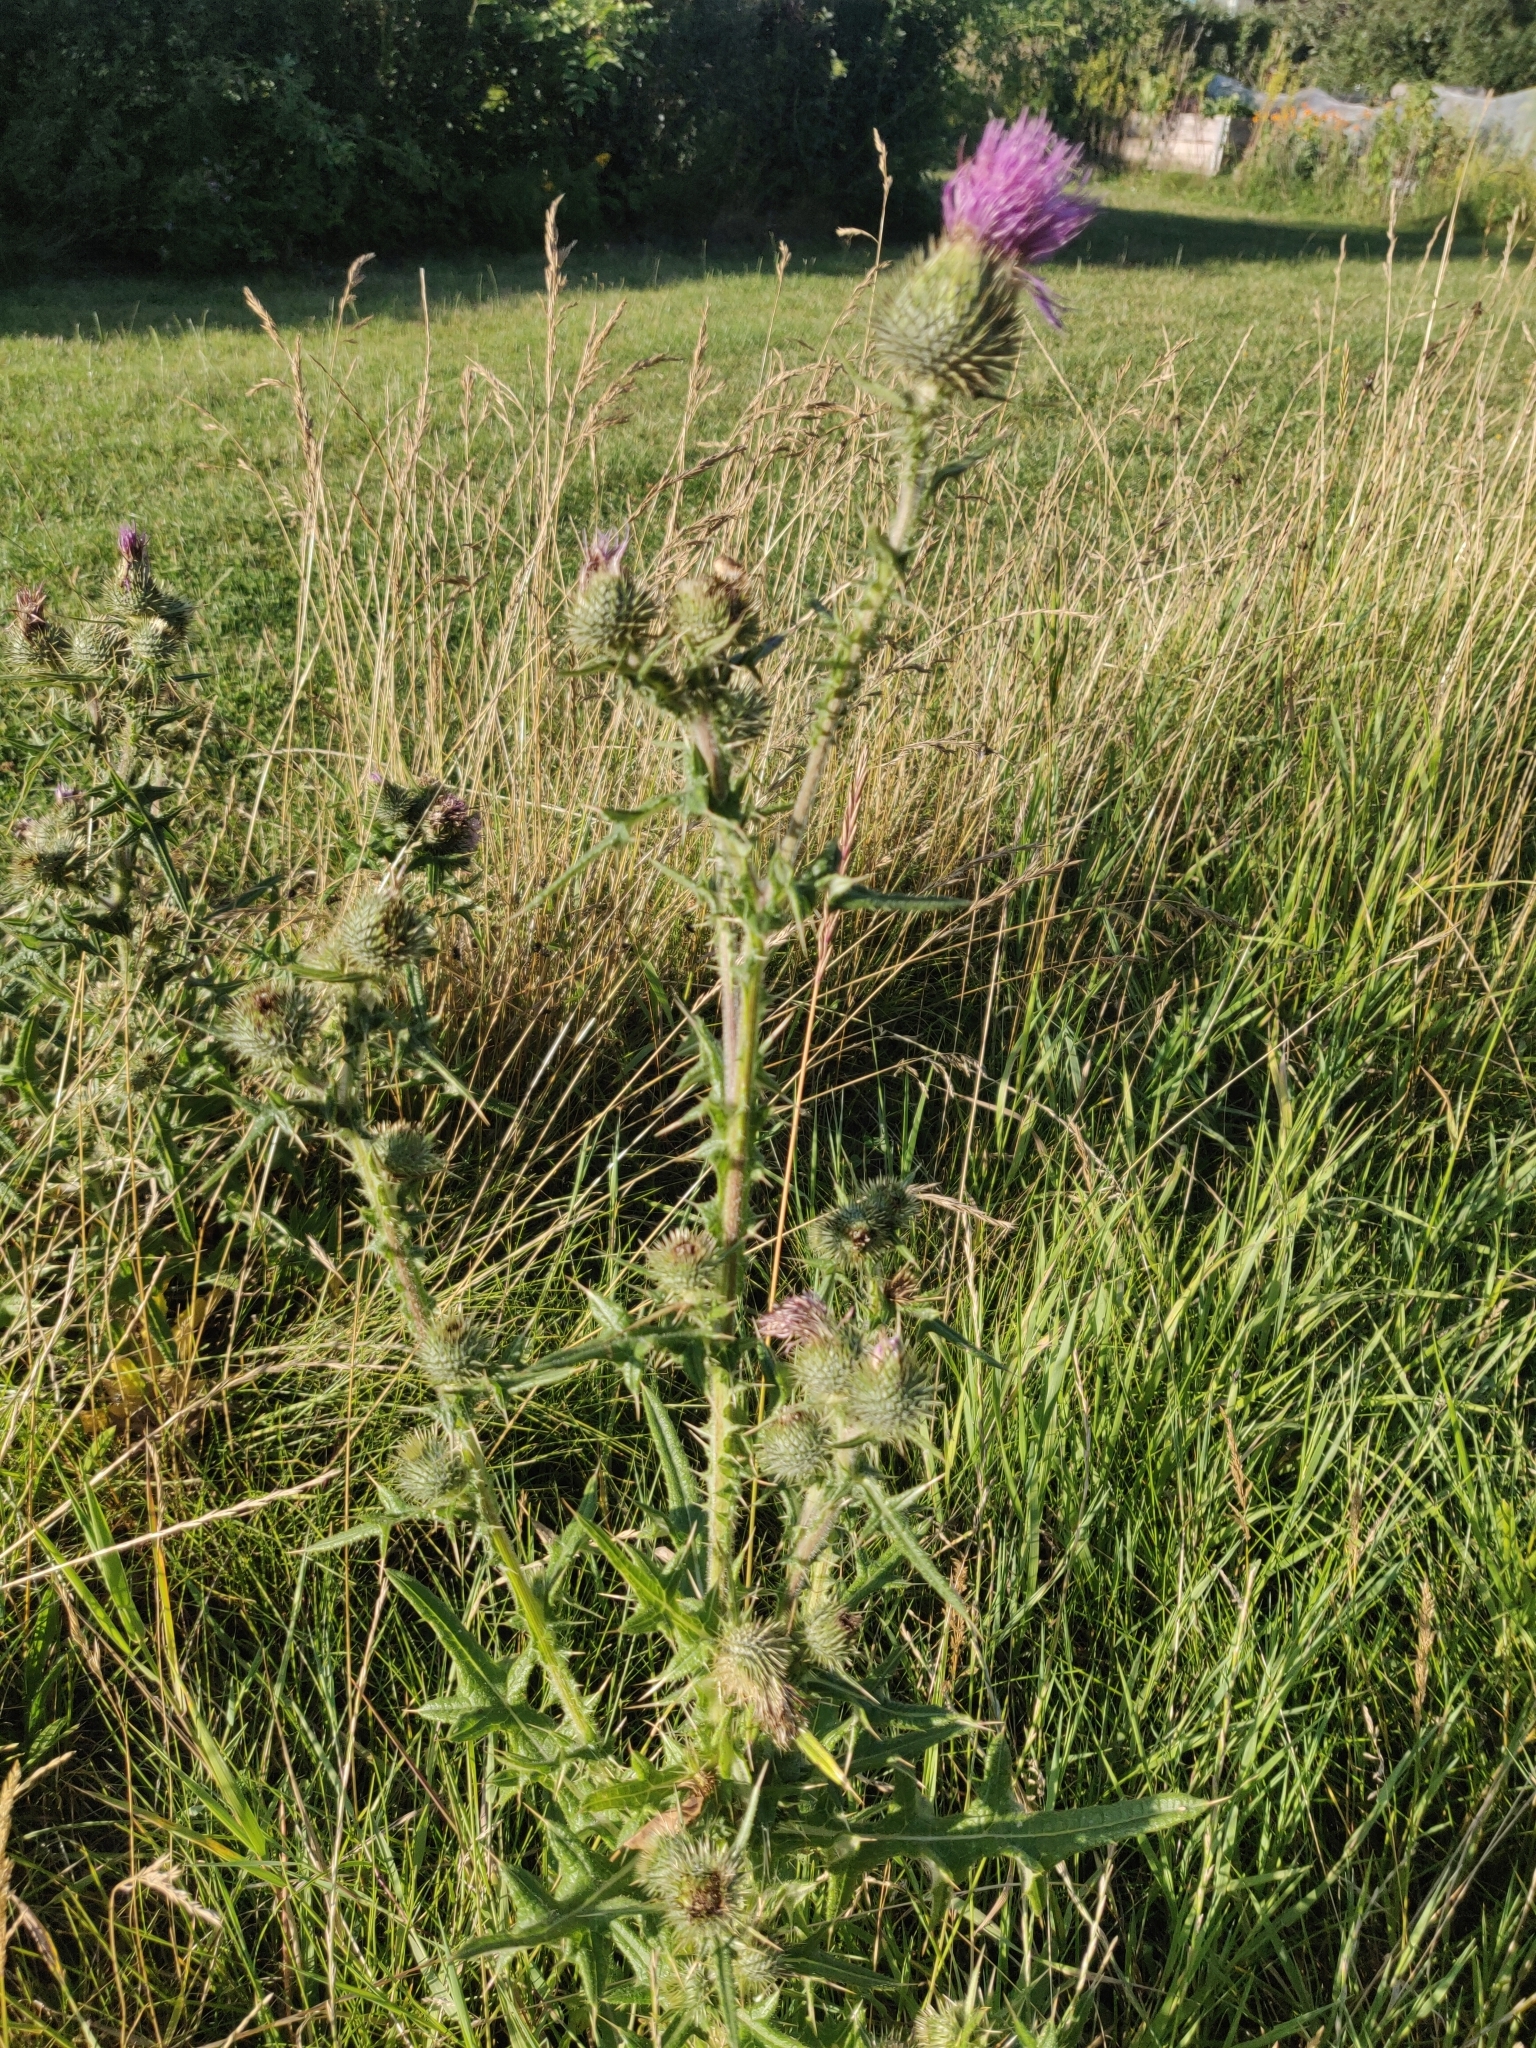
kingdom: Plantae
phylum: Tracheophyta
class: Magnoliopsida
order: Asterales
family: Asteraceae
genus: Cirsium
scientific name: Cirsium vulgare
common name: Bull thistle
